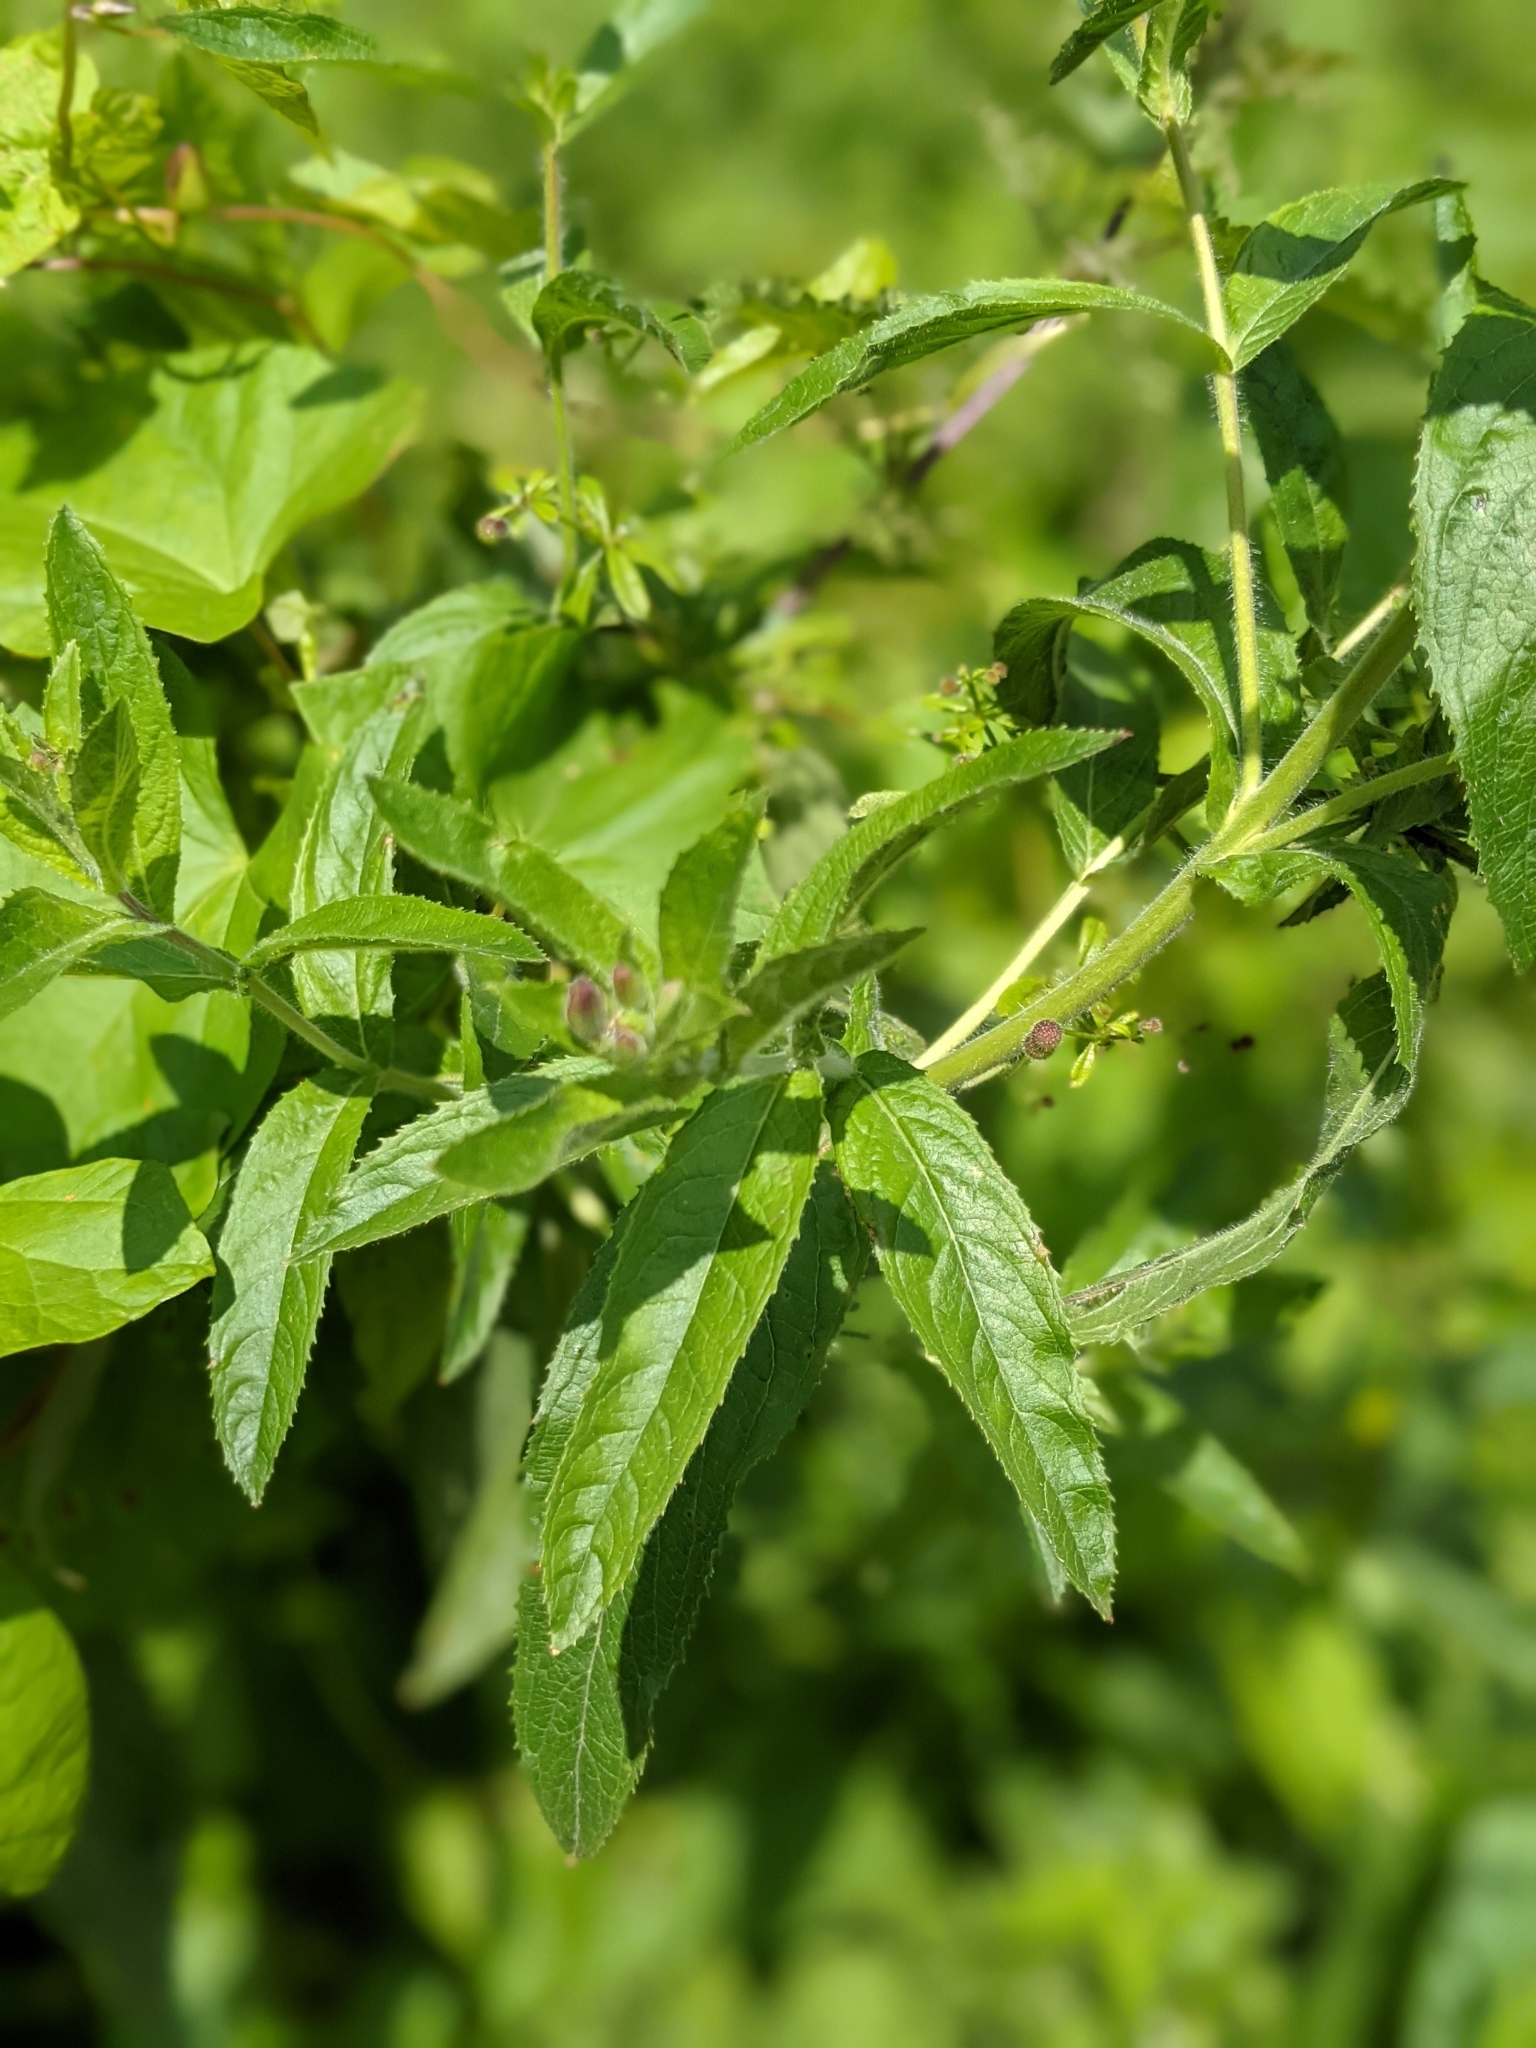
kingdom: Plantae
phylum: Tracheophyta
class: Magnoliopsida
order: Myrtales
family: Onagraceae
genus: Epilobium
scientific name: Epilobium hirsutum
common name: Great willowherb
